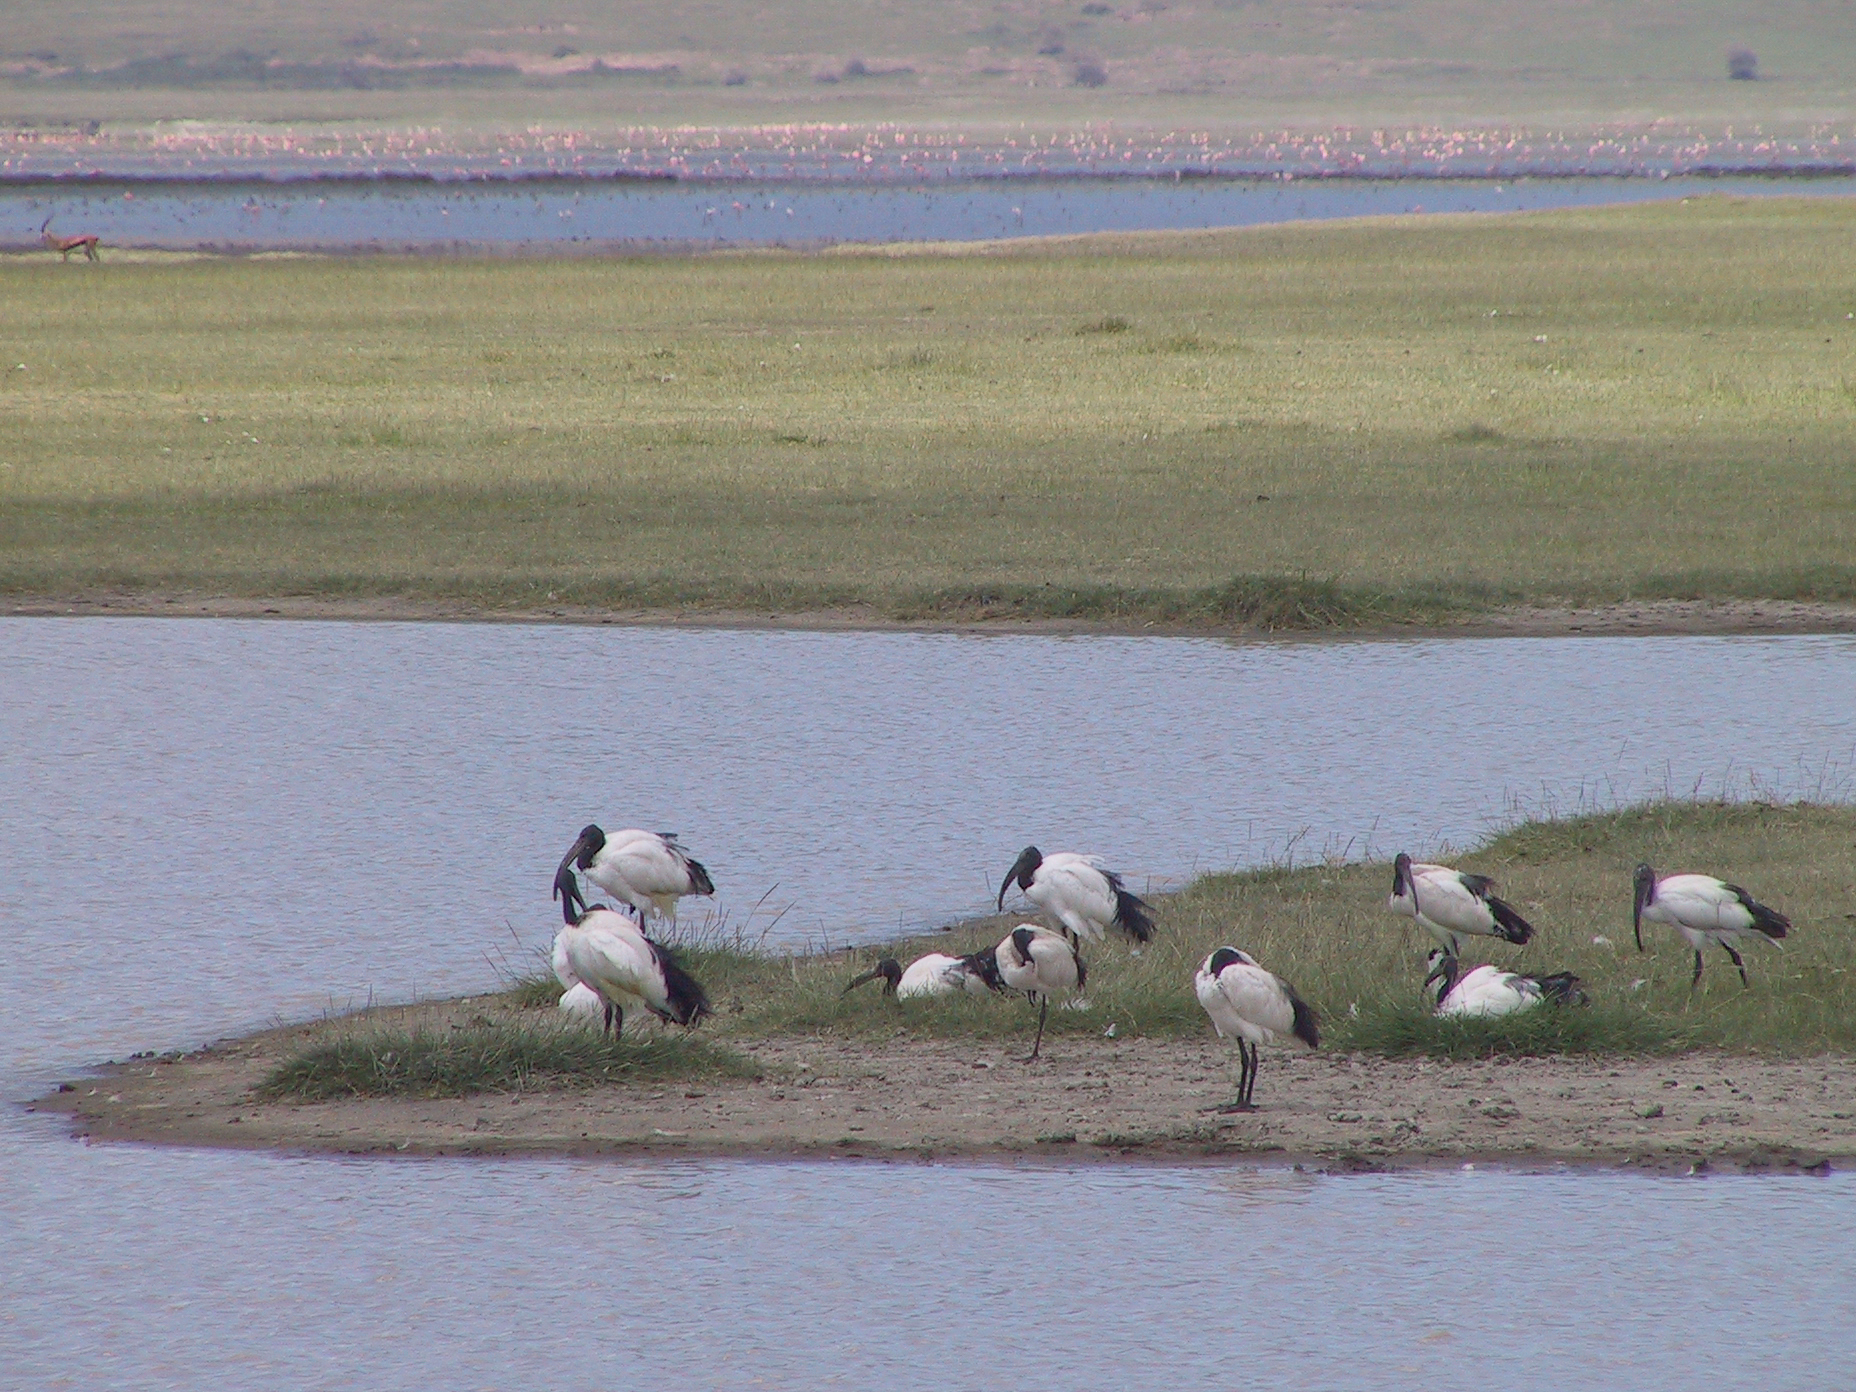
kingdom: Animalia
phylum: Chordata
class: Aves
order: Pelecaniformes
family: Threskiornithidae
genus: Threskiornis
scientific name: Threskiornis aethiopicus
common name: Sacred ibis
